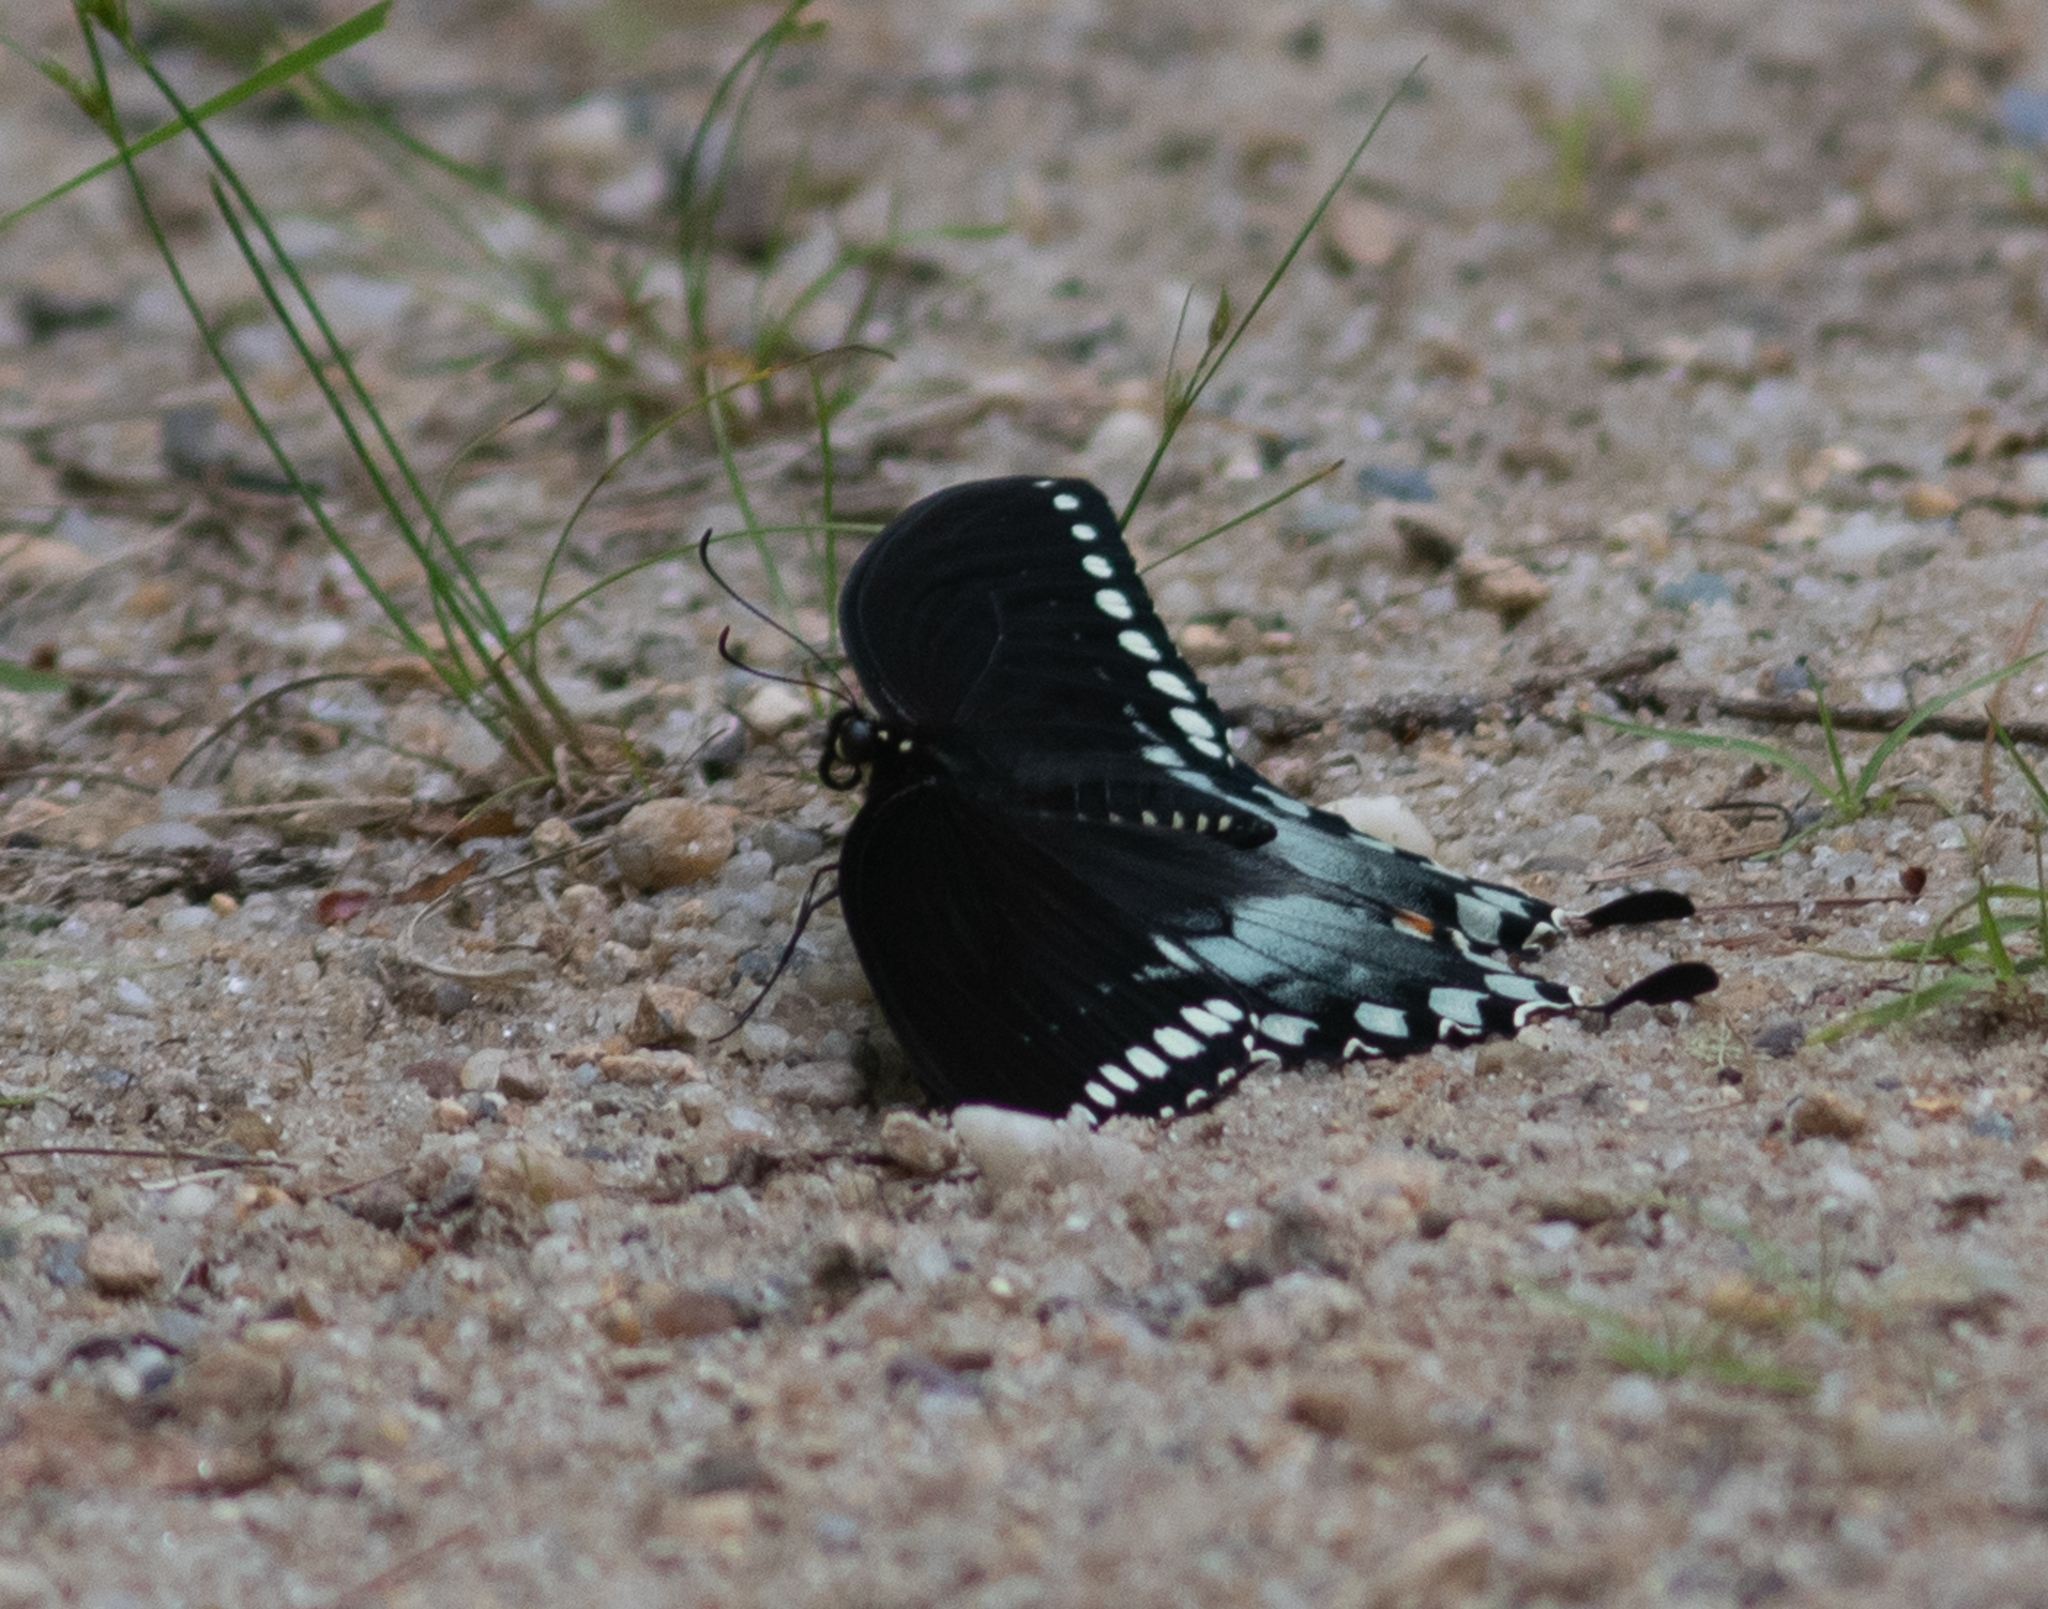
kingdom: Animalia
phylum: Arthropoda
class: Insecta
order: Lepidoptera
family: Papilionidae
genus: Papilio
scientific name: Papilio troilus
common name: Spicebush swallowtail
